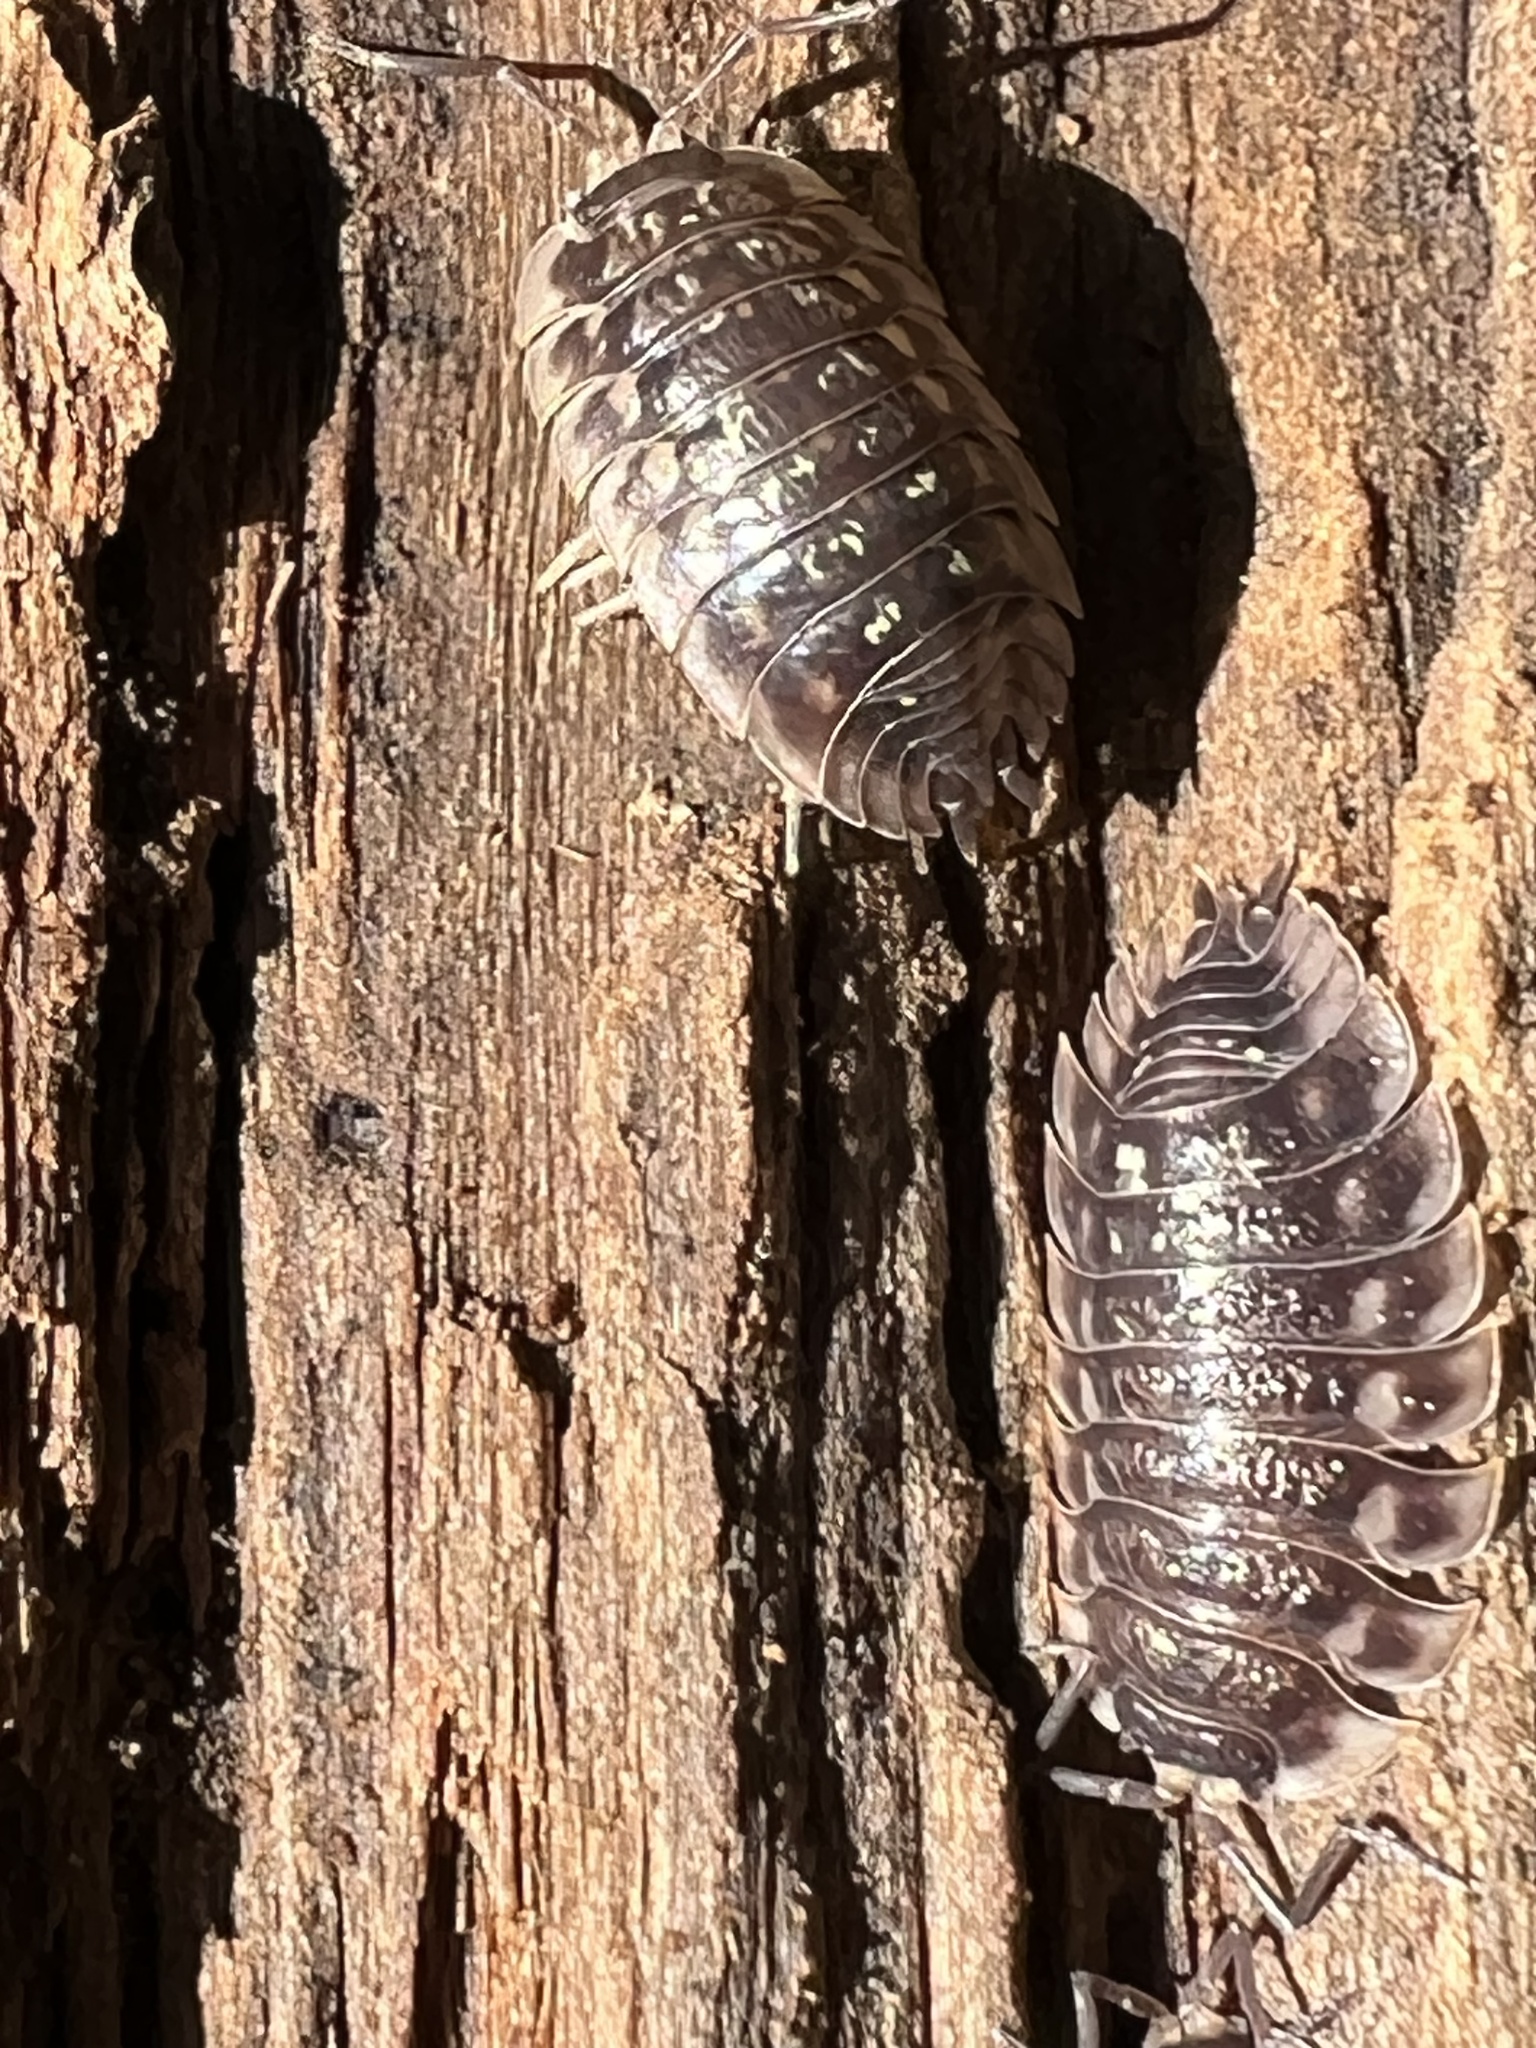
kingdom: Animalia
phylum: Arthropoda
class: Malacostraca
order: Isopoda
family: Oniscidae
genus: Oniscus
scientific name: Oniscus asellus
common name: Common shiny woodlouse
